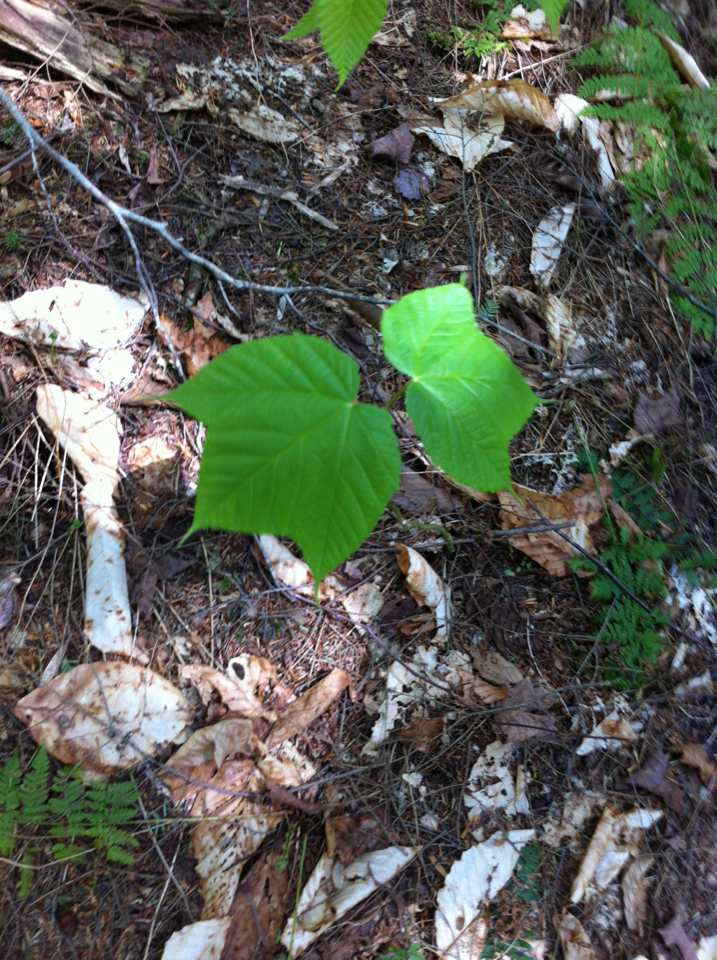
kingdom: Plantae
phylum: Tracheophyta
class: Magnoliopsida
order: Sapindales
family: Sapindaceae
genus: Acer
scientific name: Acer pensylvanicum
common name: Moosewood
